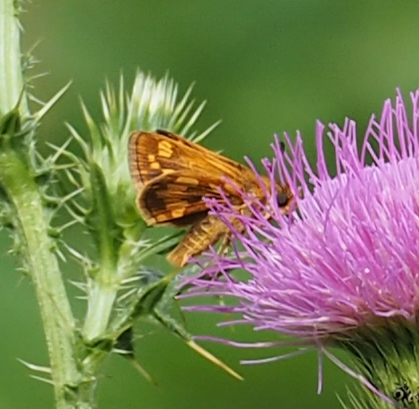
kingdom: Animalia
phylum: Arthropoda
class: Insecta
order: Lepidoptera
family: Hesperiidae
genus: Polites
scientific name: Polites coras
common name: Peck's skipper
